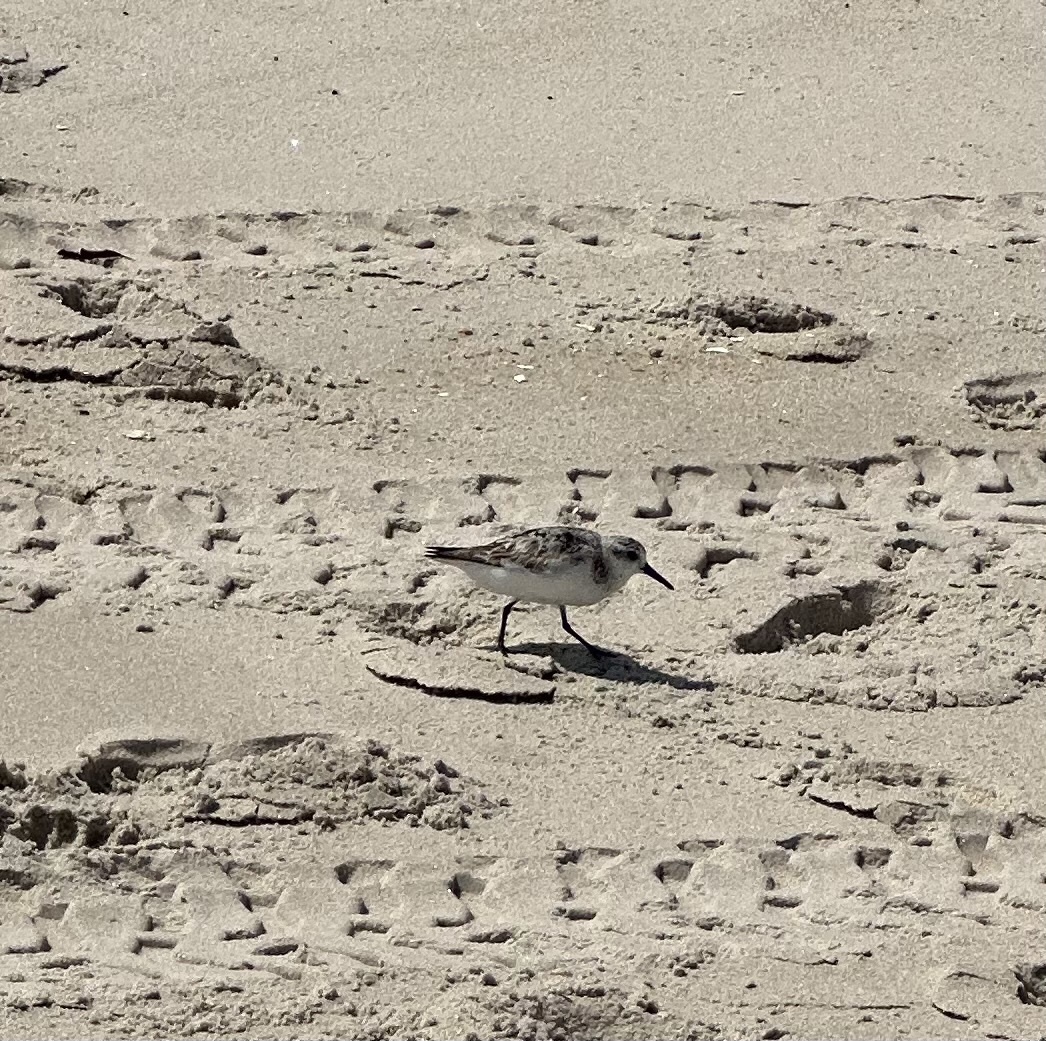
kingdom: Animalia
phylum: Chordata
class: Aves
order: Charadriiformes
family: Scolopacidae
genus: Calidris
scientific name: Calidris alba
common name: Sanderling
